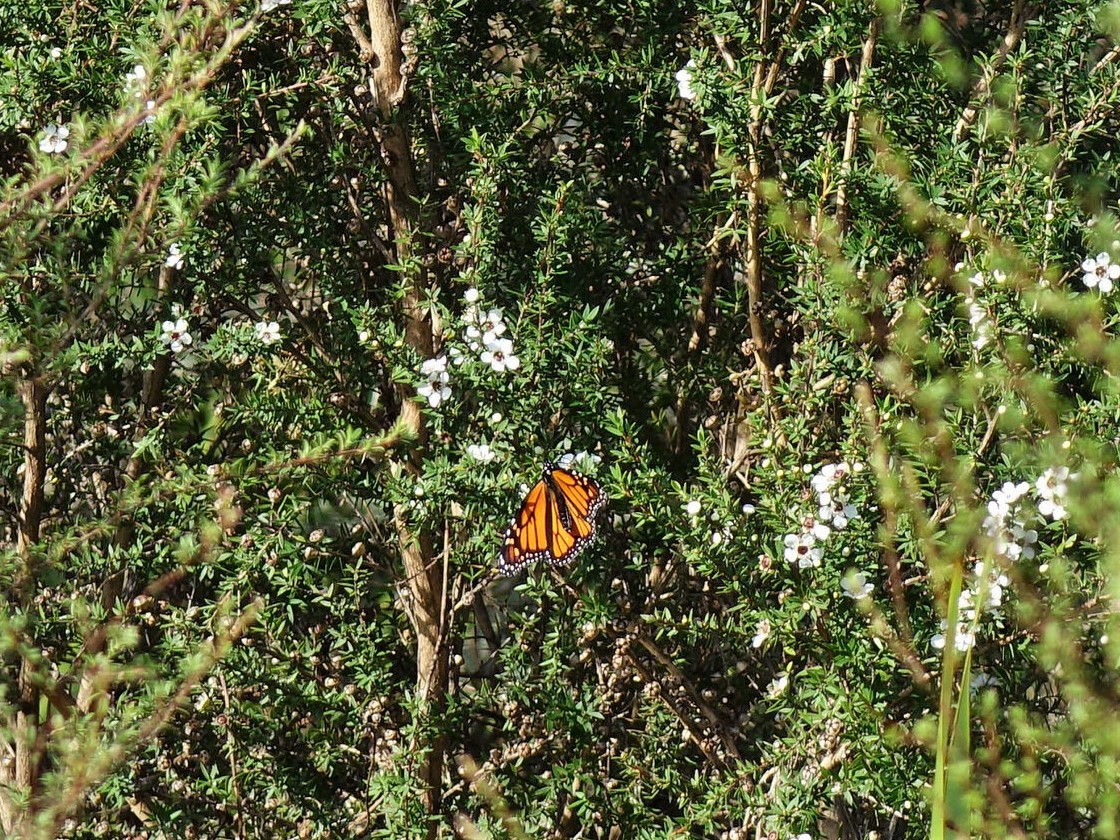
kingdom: Animalia
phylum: Arthropoda
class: Insecta
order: Lepidoptera
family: Nymphalidae
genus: Danaus
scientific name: Danaus plexippus
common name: Monarch
